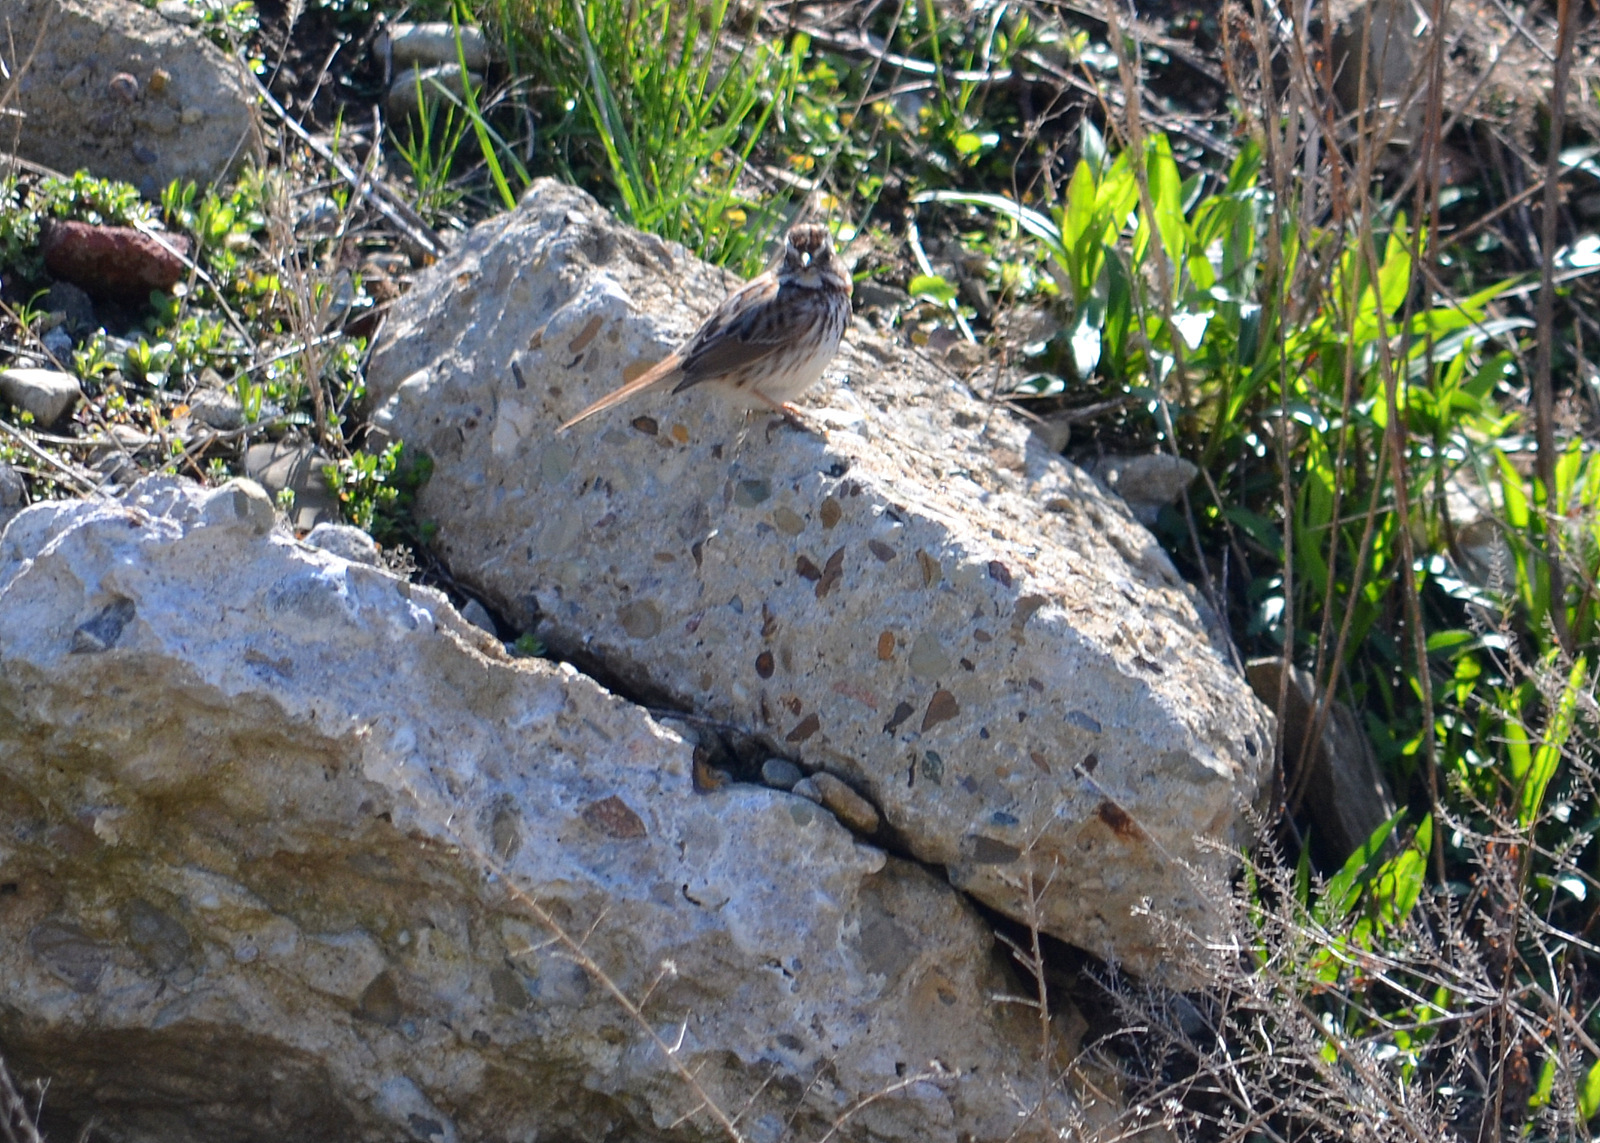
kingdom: Animalia
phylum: Chordata
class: Aves
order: Passeriformes
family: Passerellidae
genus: Melospiza
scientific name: Melospiza melodia
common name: Song sparrow
